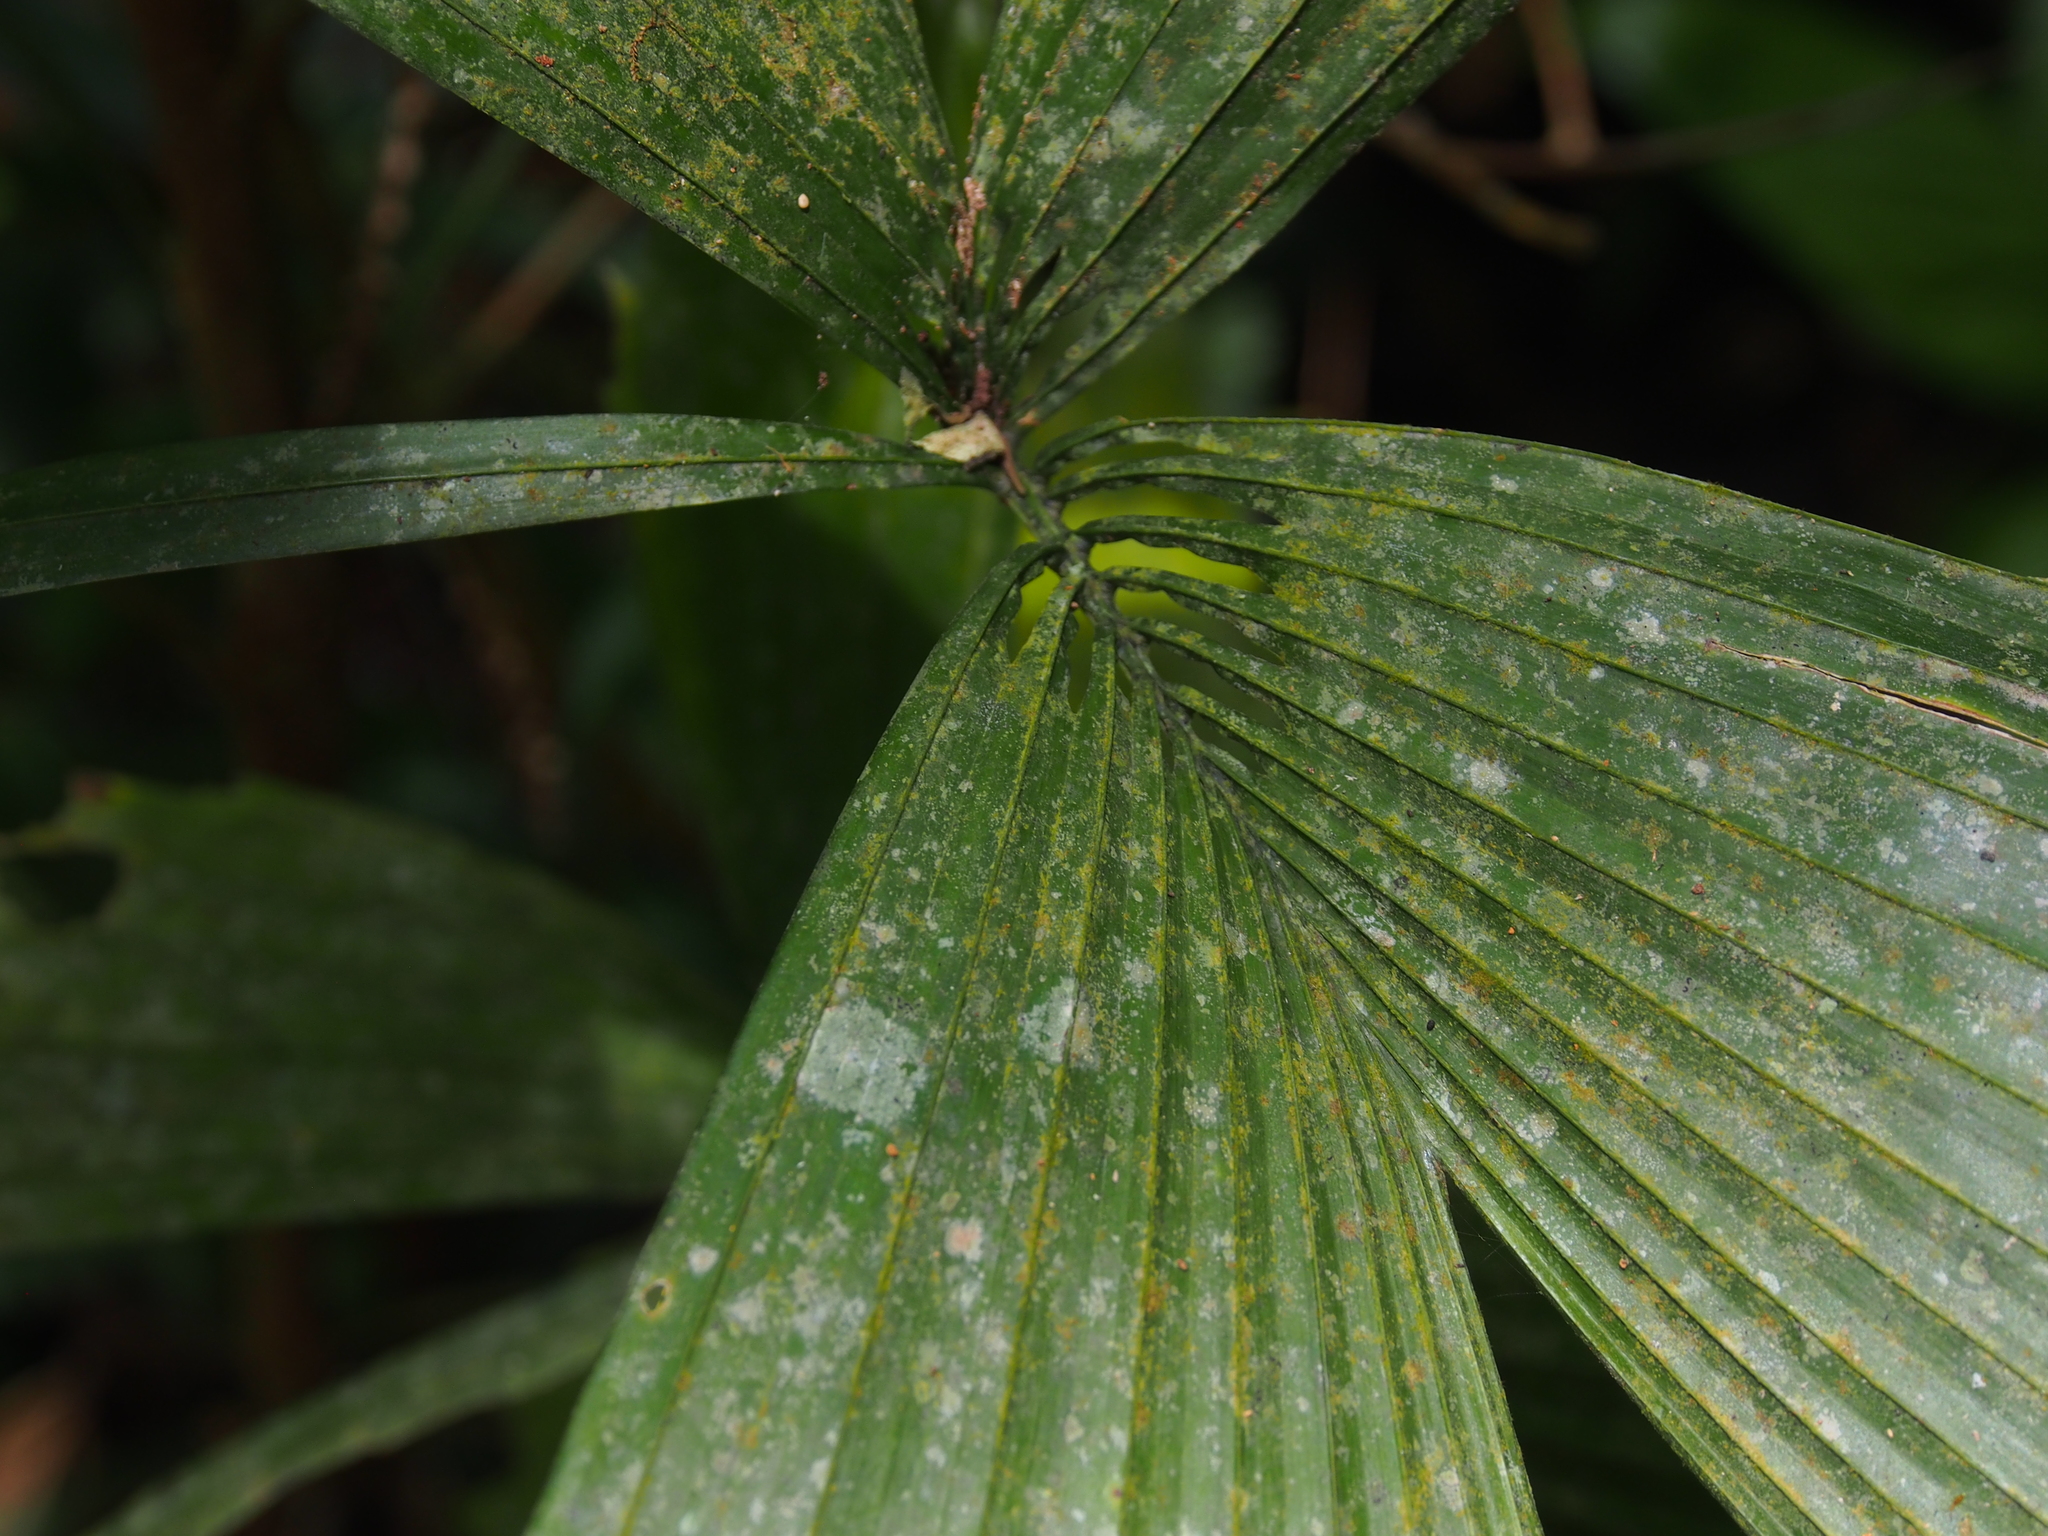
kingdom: Plantae
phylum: Tracheophyta
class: Liliopsida
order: Arecales
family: Arecaceae
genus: Reinhardtia
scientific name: Reinhardtia gracilis
